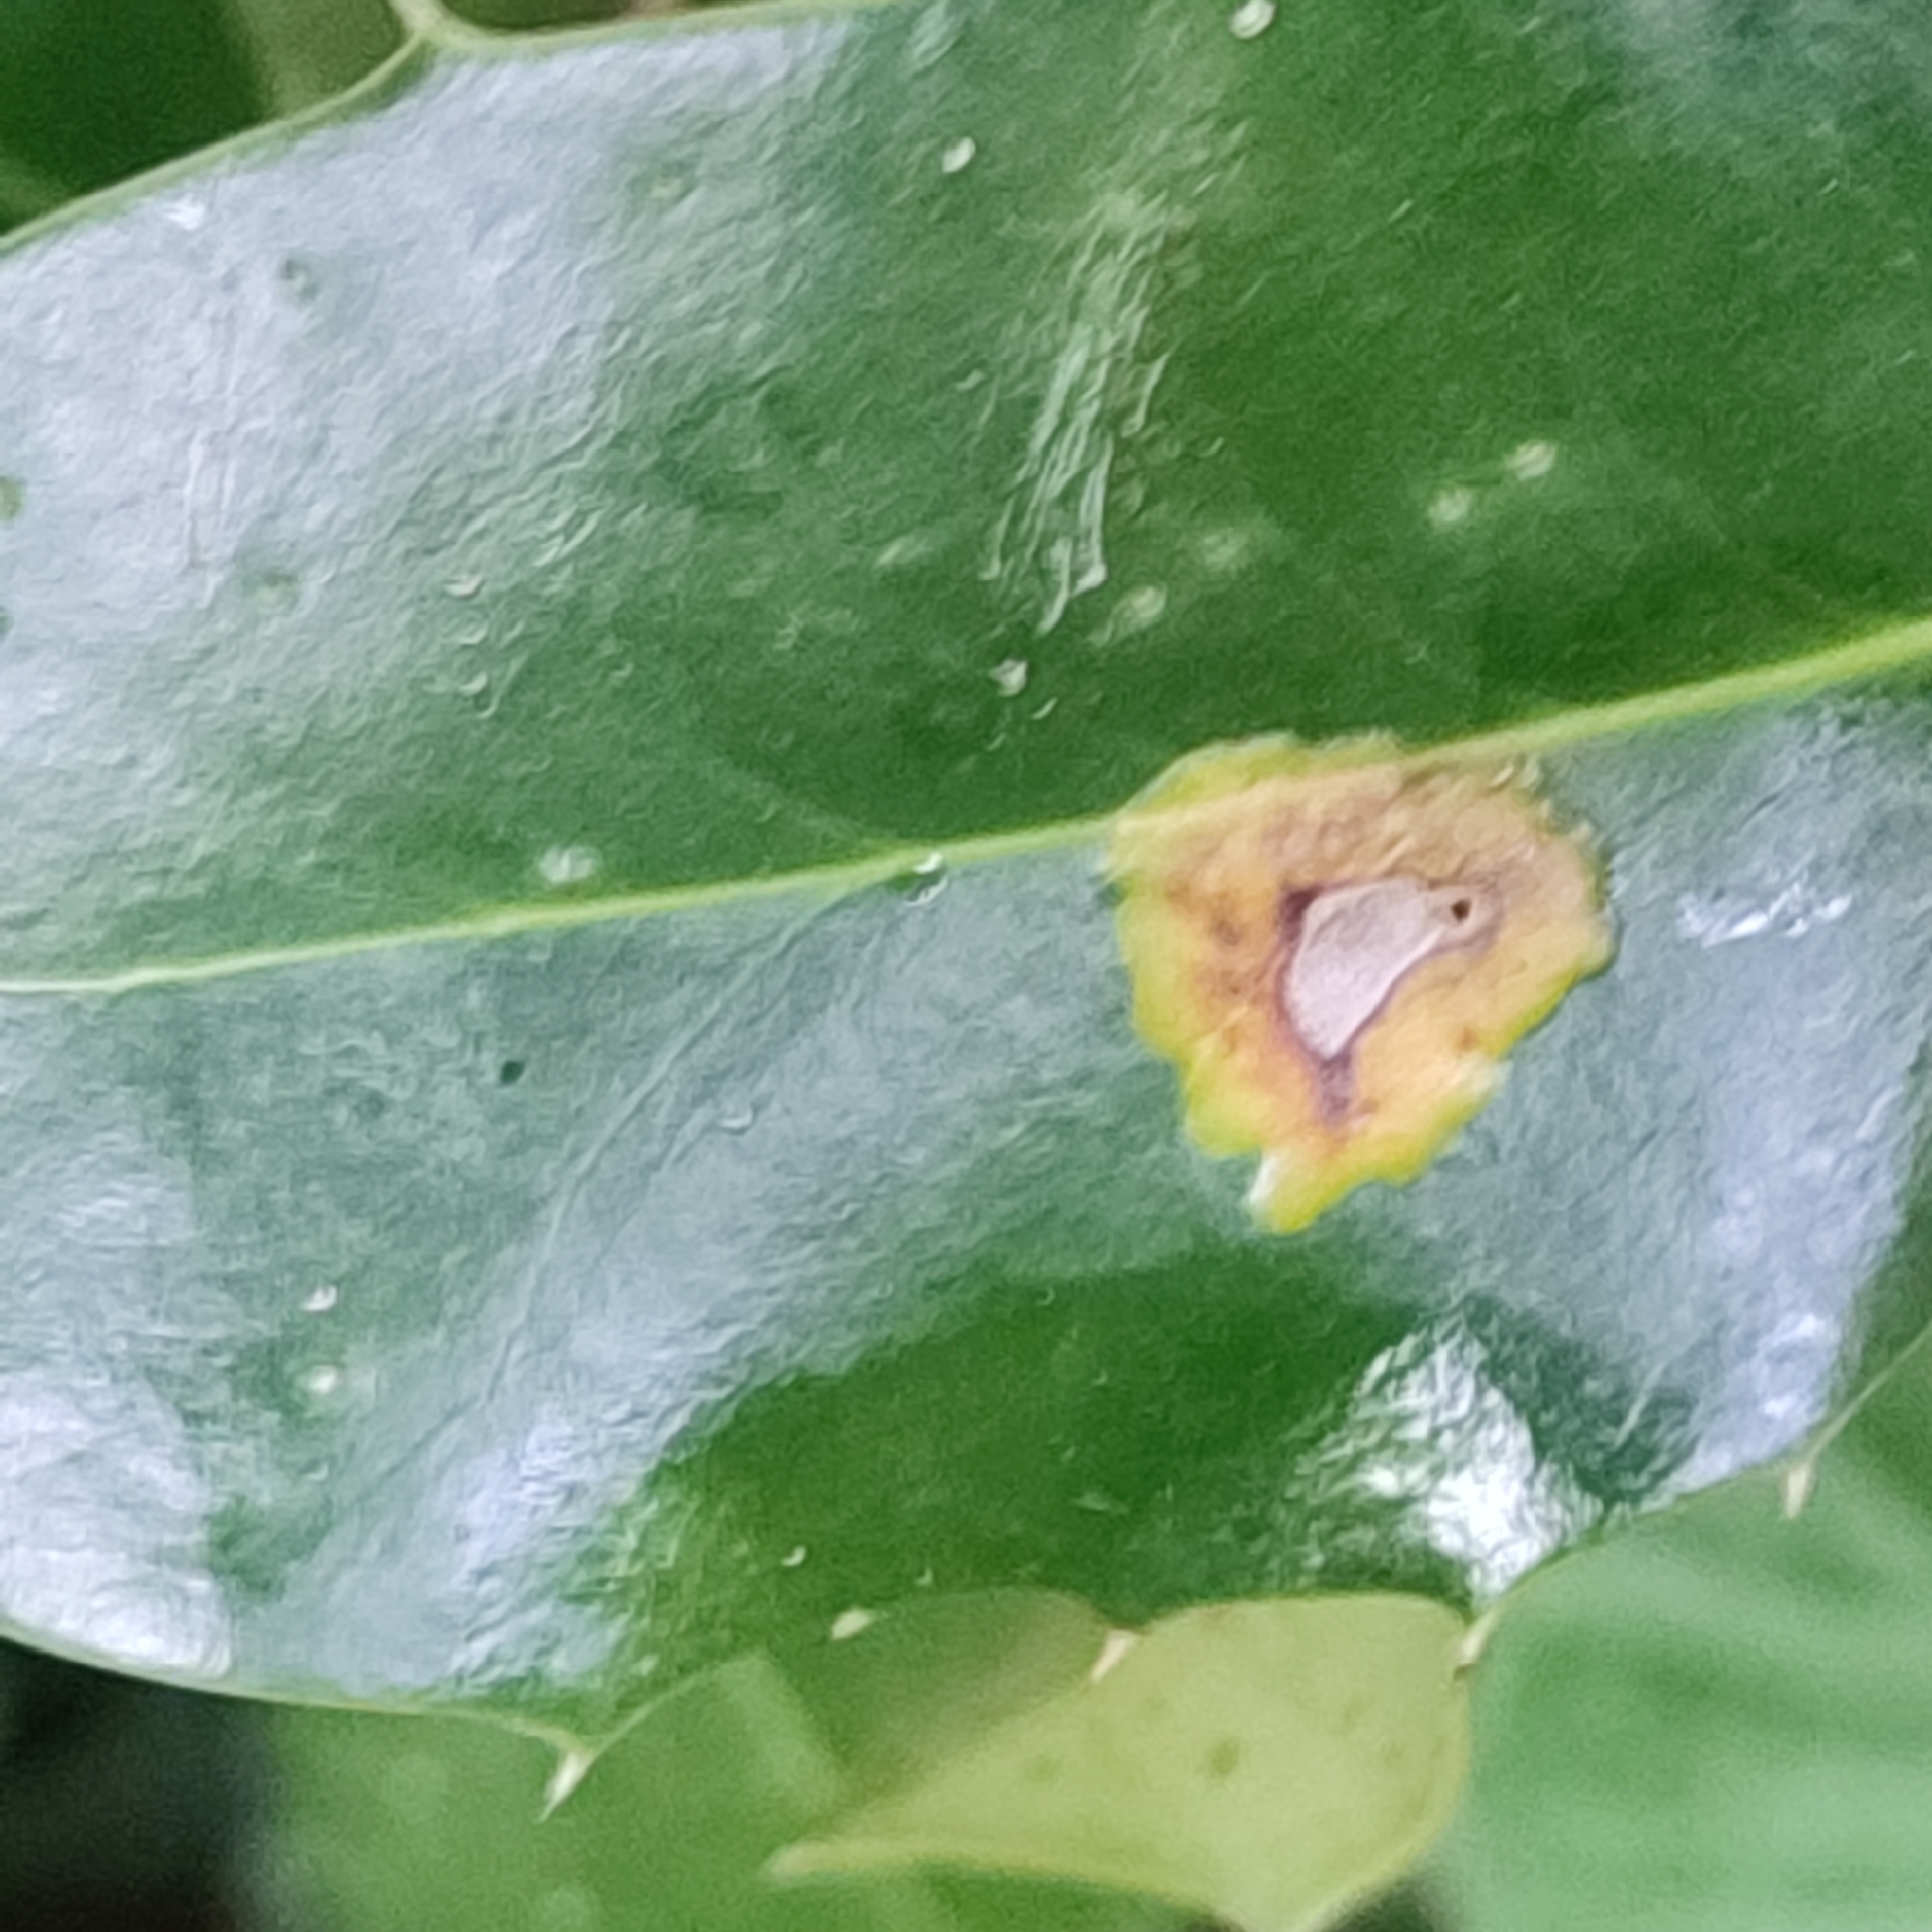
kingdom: Animalia
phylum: Arthropoda
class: Insecta
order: Diptera
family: Agromyzidae
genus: Phytomyza
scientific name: Phytomyza ilicis
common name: Holly leafminer
